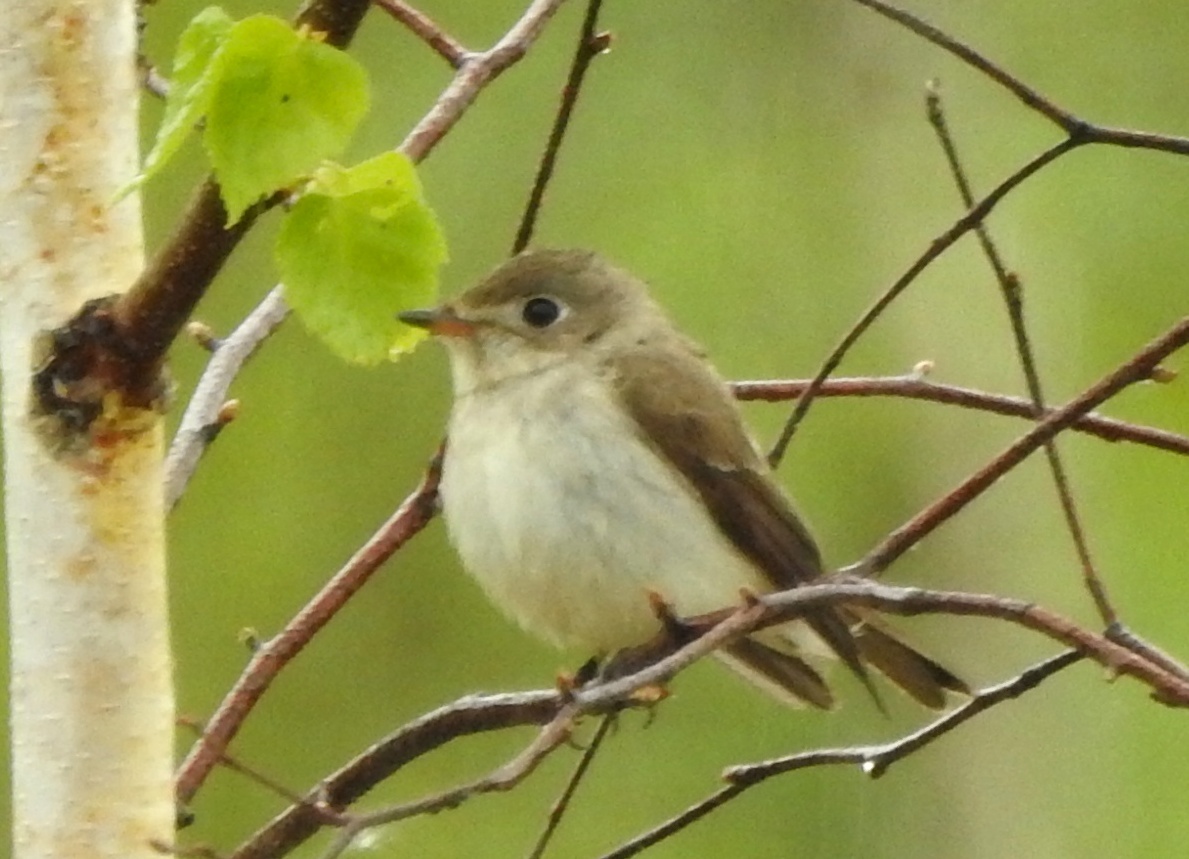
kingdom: Animalia
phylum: Chordata
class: Aves
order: Passeriformes
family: Muscicapidae
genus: Muscicapa
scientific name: Muscicapa latirostris
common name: Asian brown flycatcher
